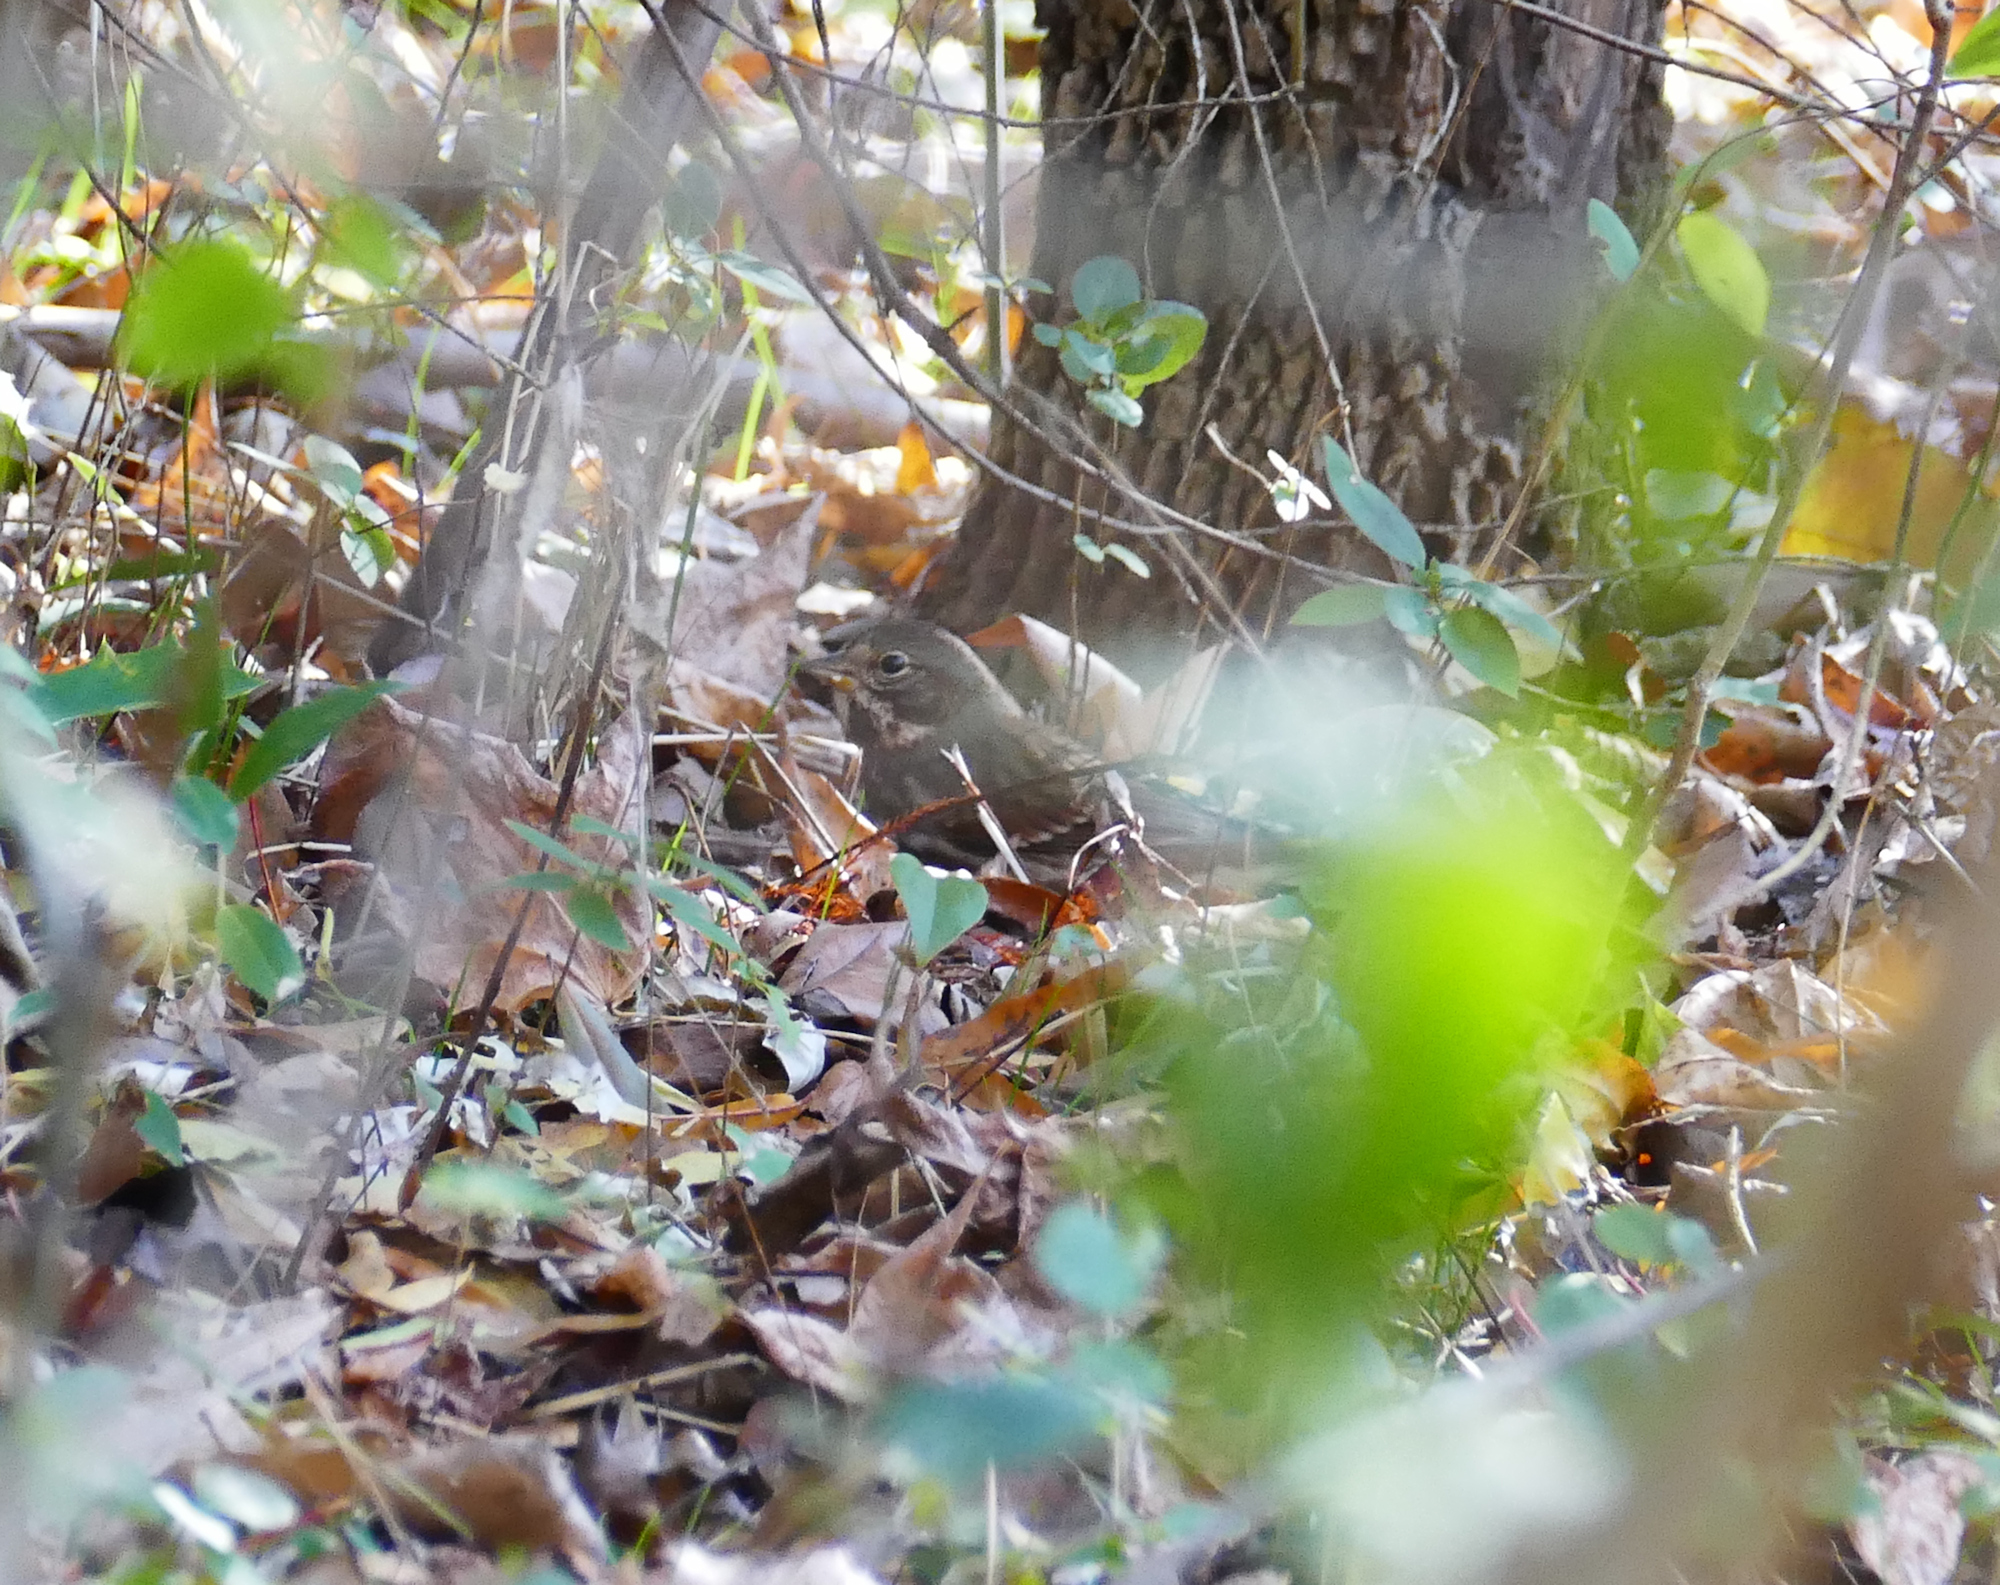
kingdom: Animalia
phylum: Chordata
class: Aves
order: Passeriformes
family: Passerellidae
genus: Passerella
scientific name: Passerella iliaca
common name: Fox sparrow
